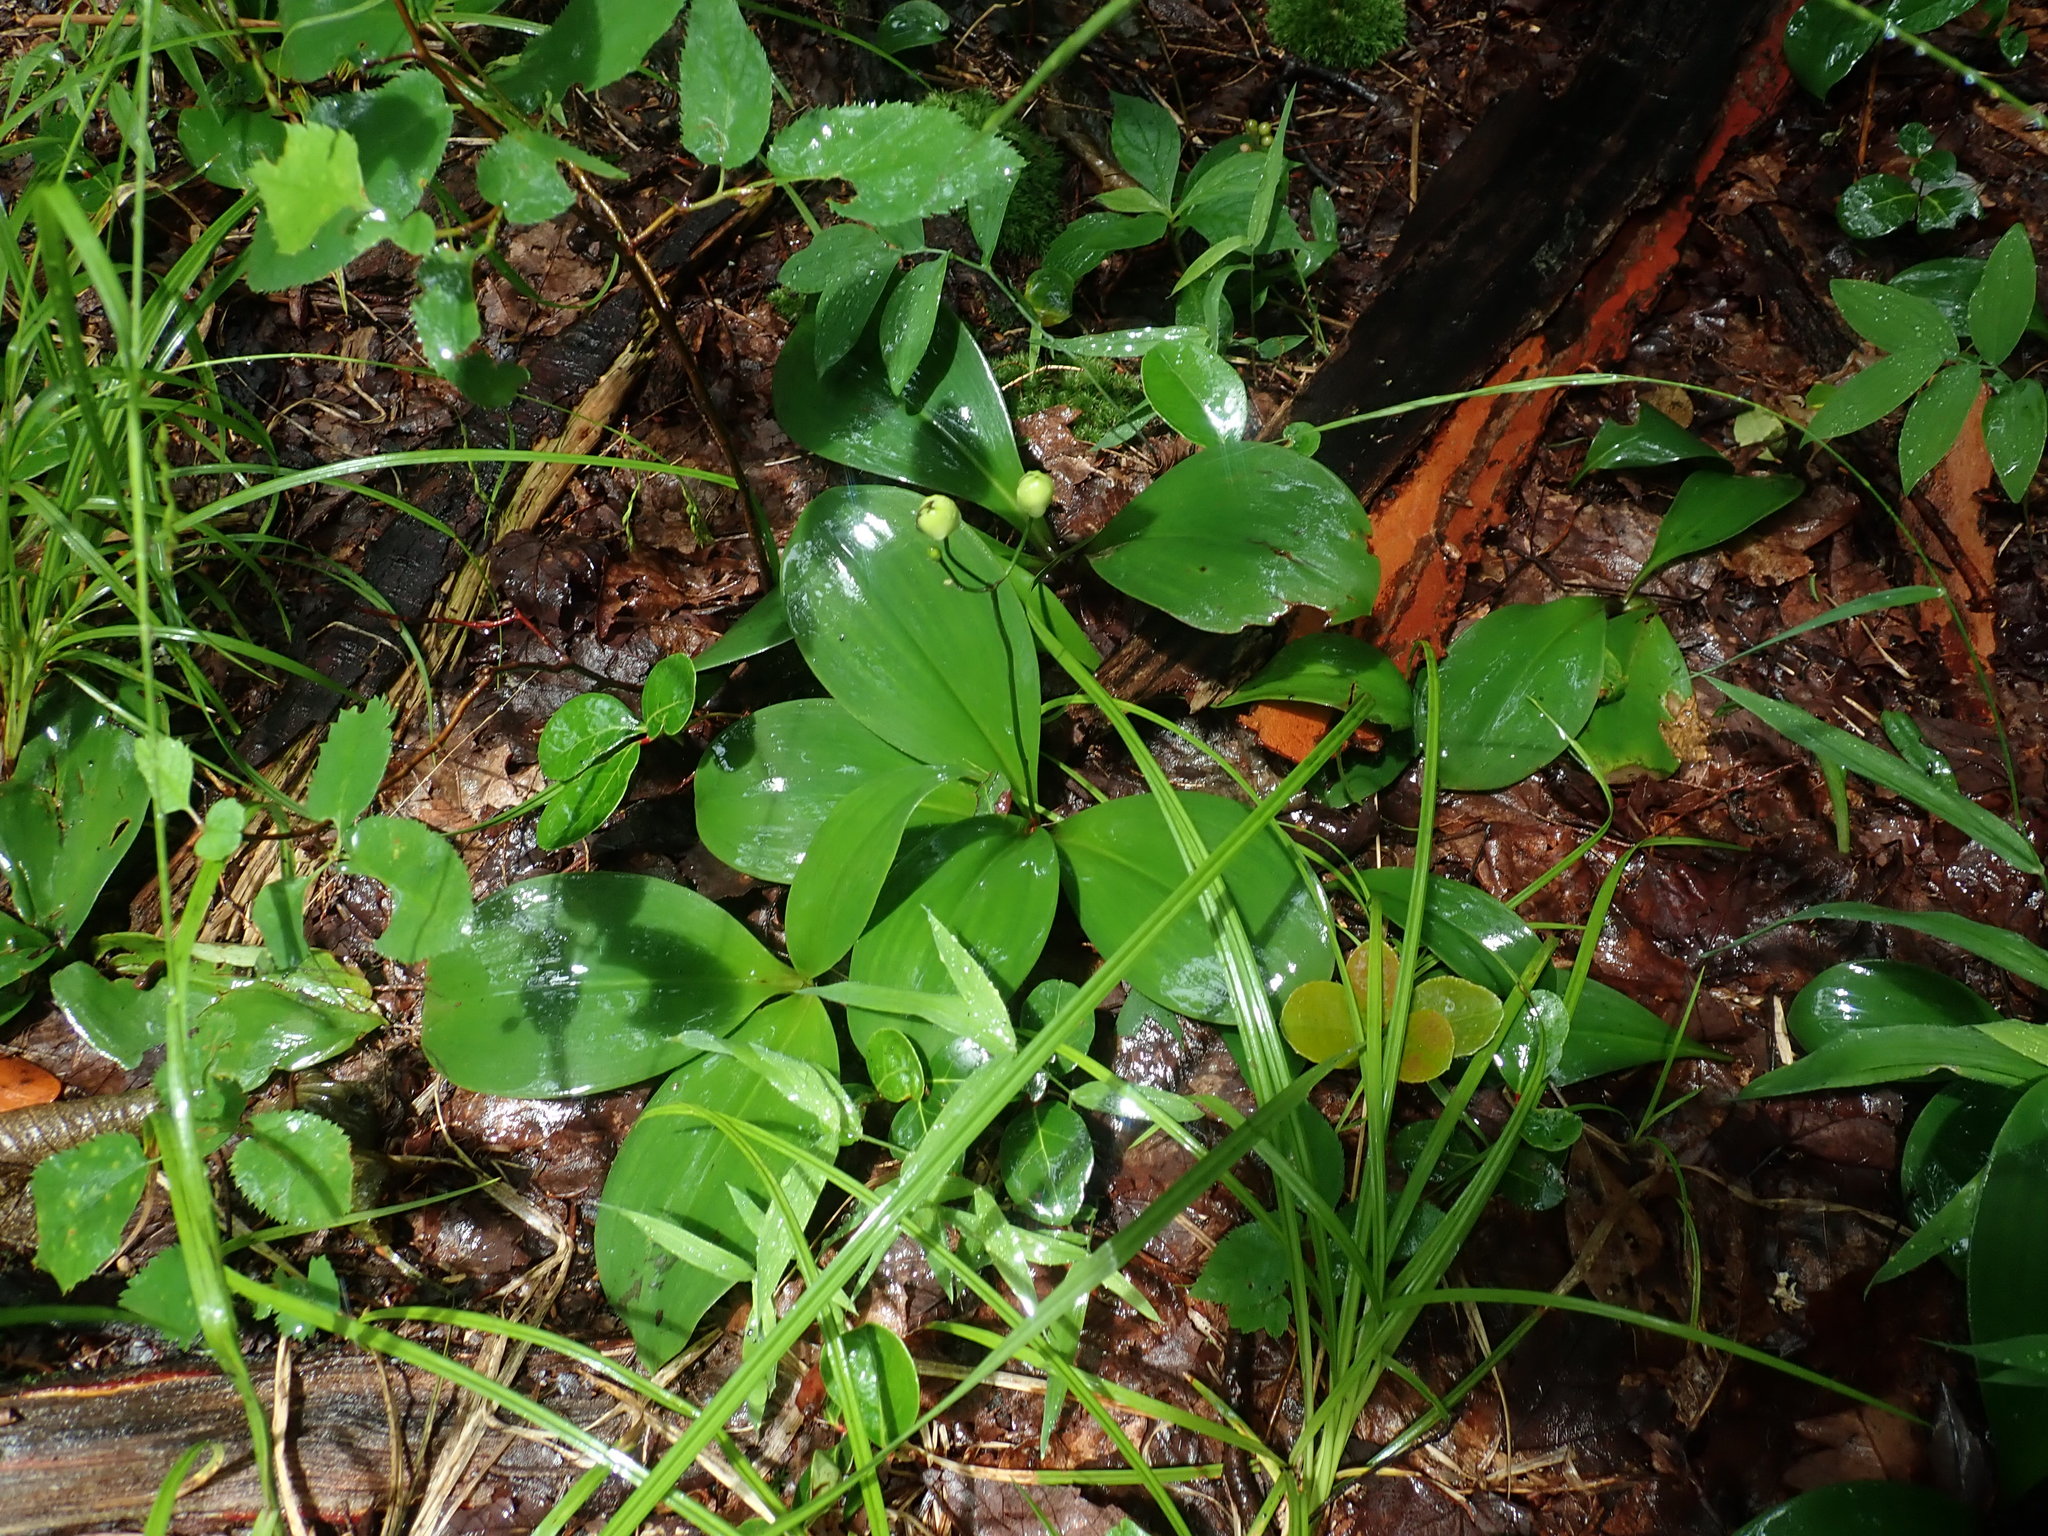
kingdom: Plantae
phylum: Tracheophyta
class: Liliopsida
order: Liliales
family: Liliaceae
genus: Clintonia
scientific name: Clintonia borealis
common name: Yellow clintonia
